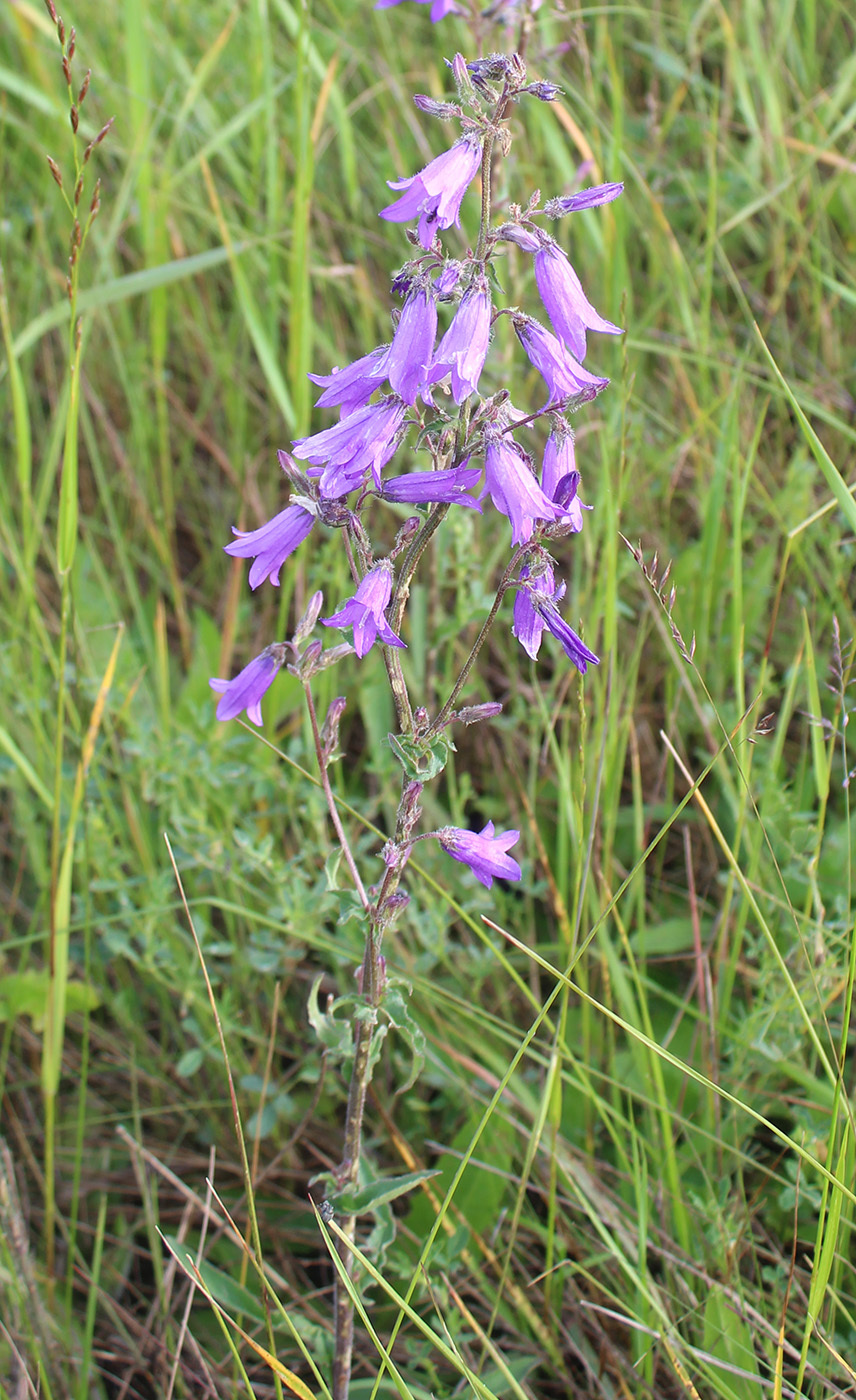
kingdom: Plantae
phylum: Tracheophyta
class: Magnoliopsida
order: Asterales
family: Campanulaceae
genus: Campanula
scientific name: Campanula sibirica
